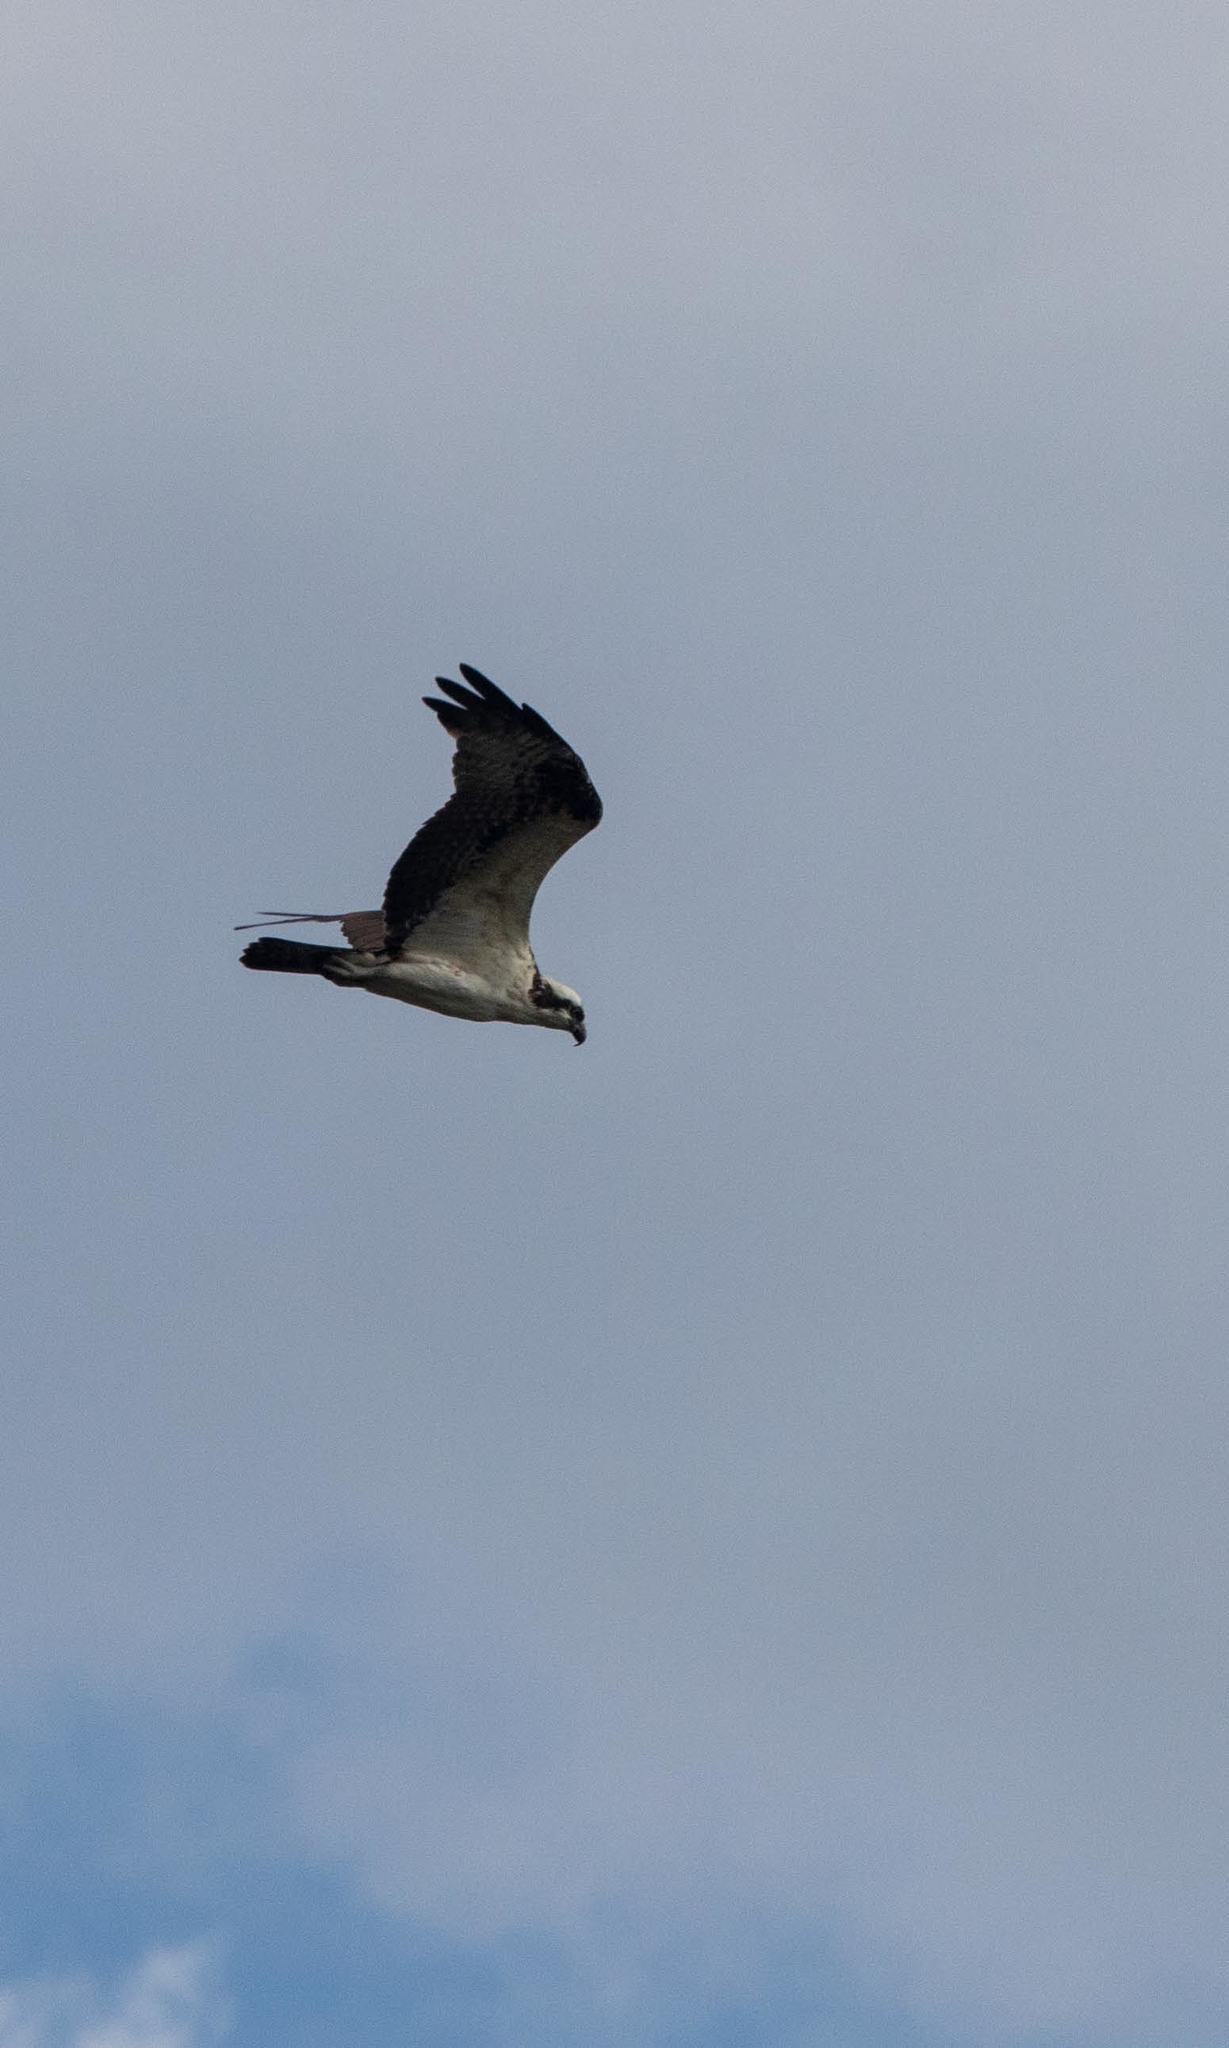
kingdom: Animalia
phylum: Chordata
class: Aves
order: Accipitriformes
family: Pandionidae
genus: Pandion
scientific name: Pandion haliaetus
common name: Osprey
